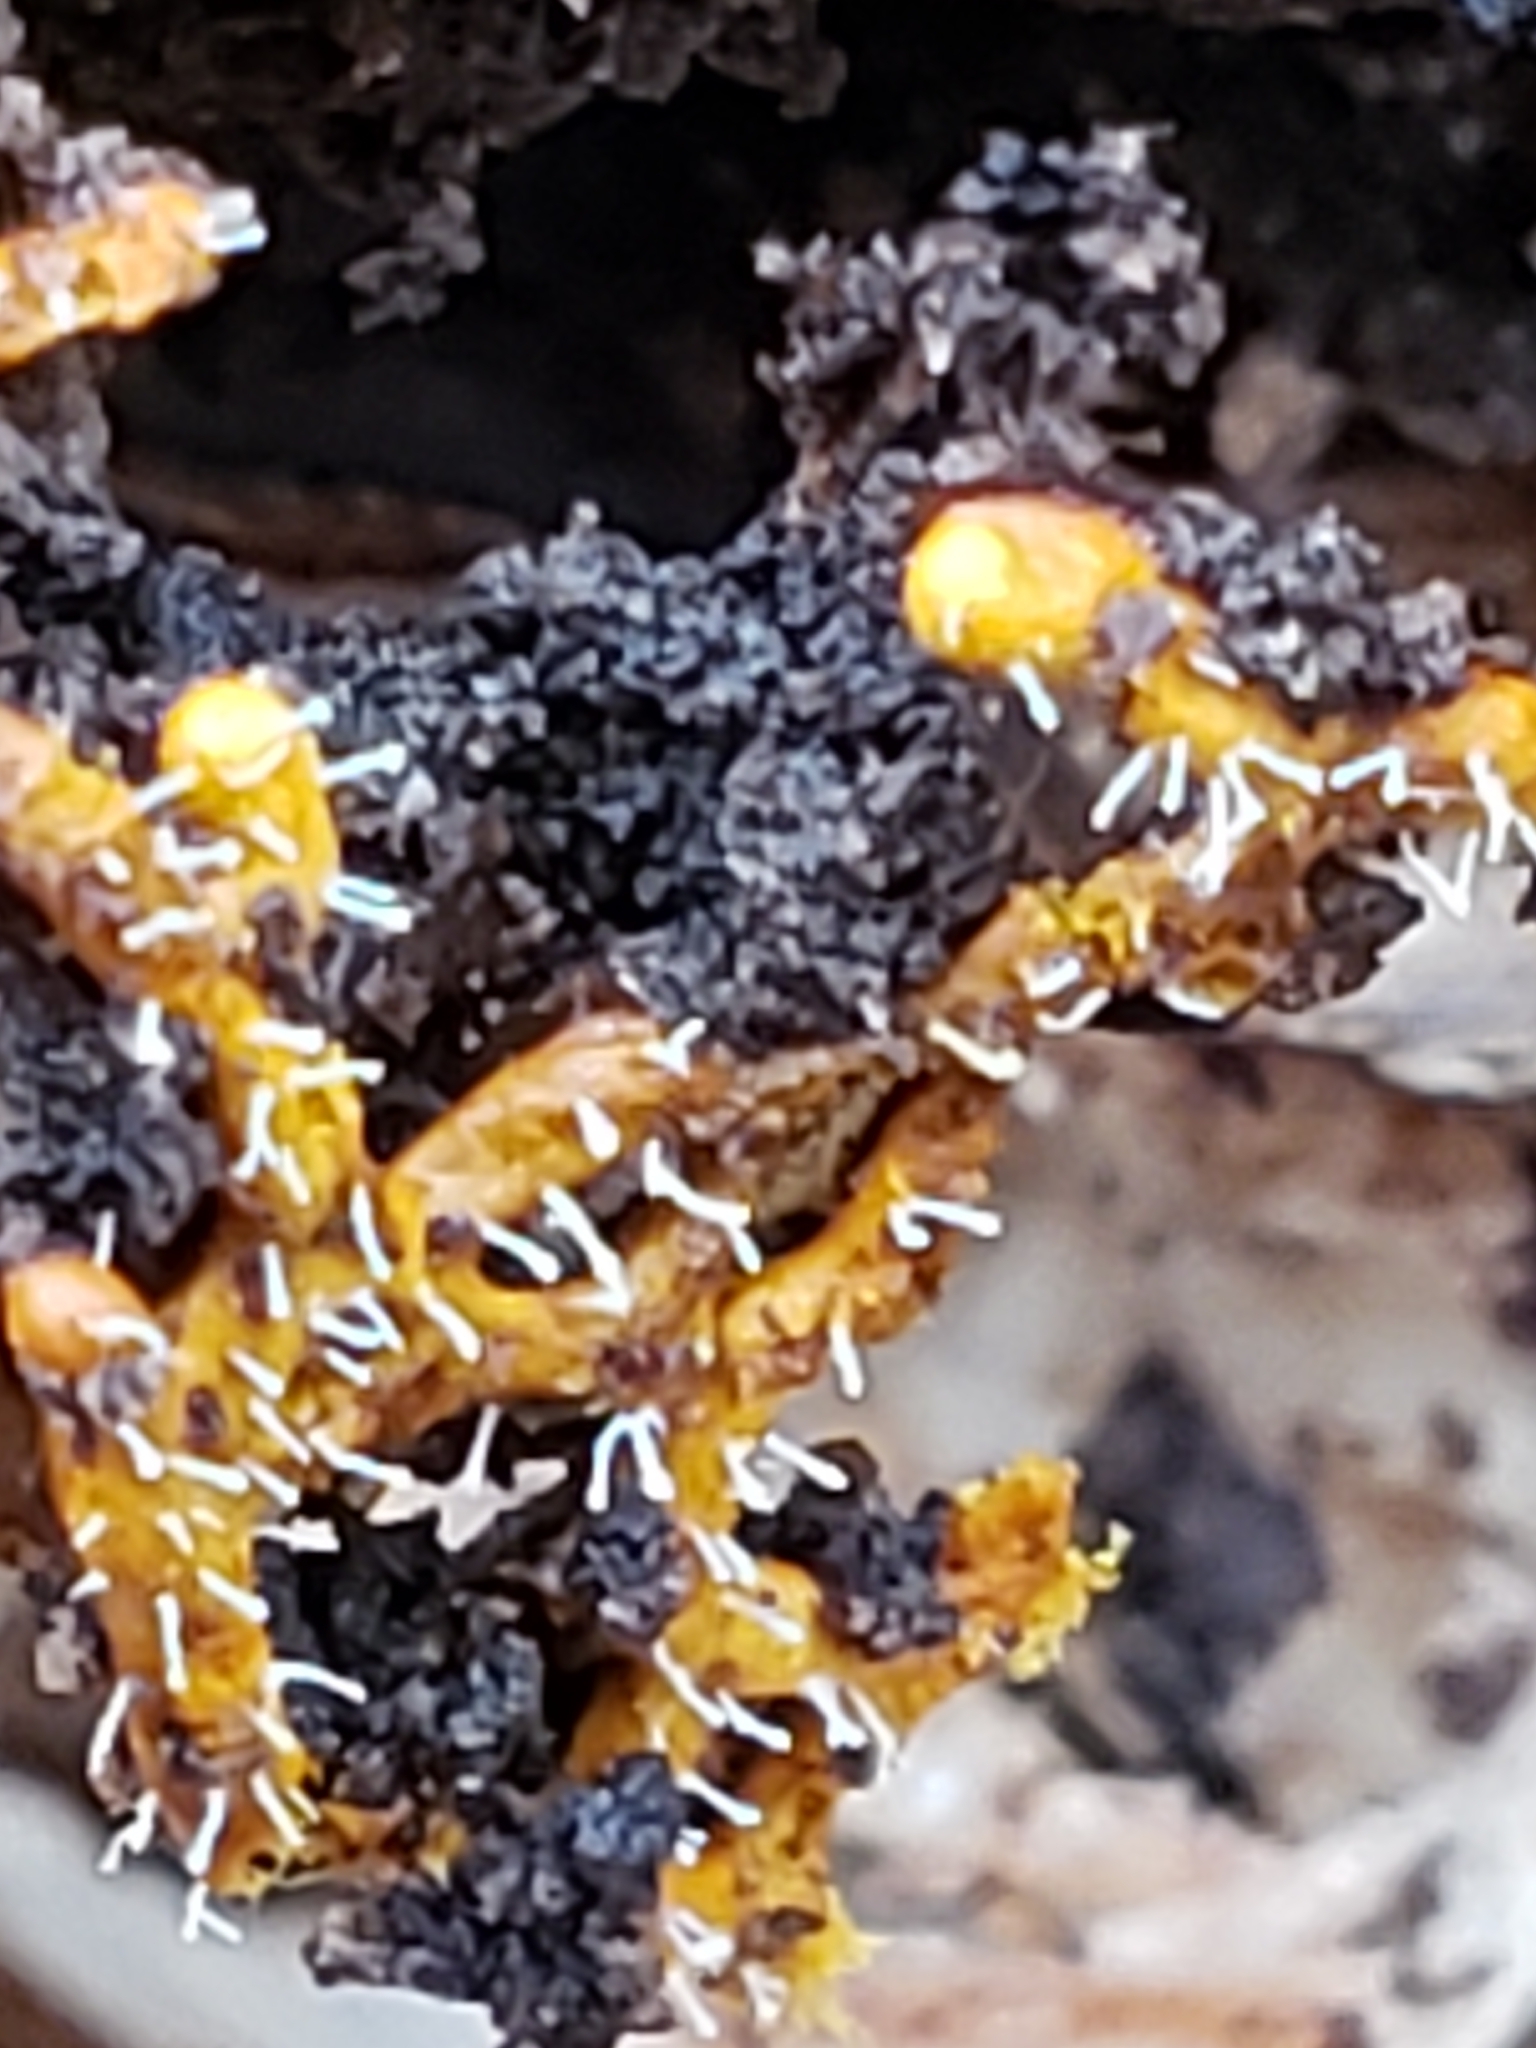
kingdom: Fungi
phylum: Ascomycota
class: Sordariomycetes
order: Hypocreales
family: Ophiocordycipitaceae
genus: Polycephalomyces
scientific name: Polycephalomyces tomentosus
